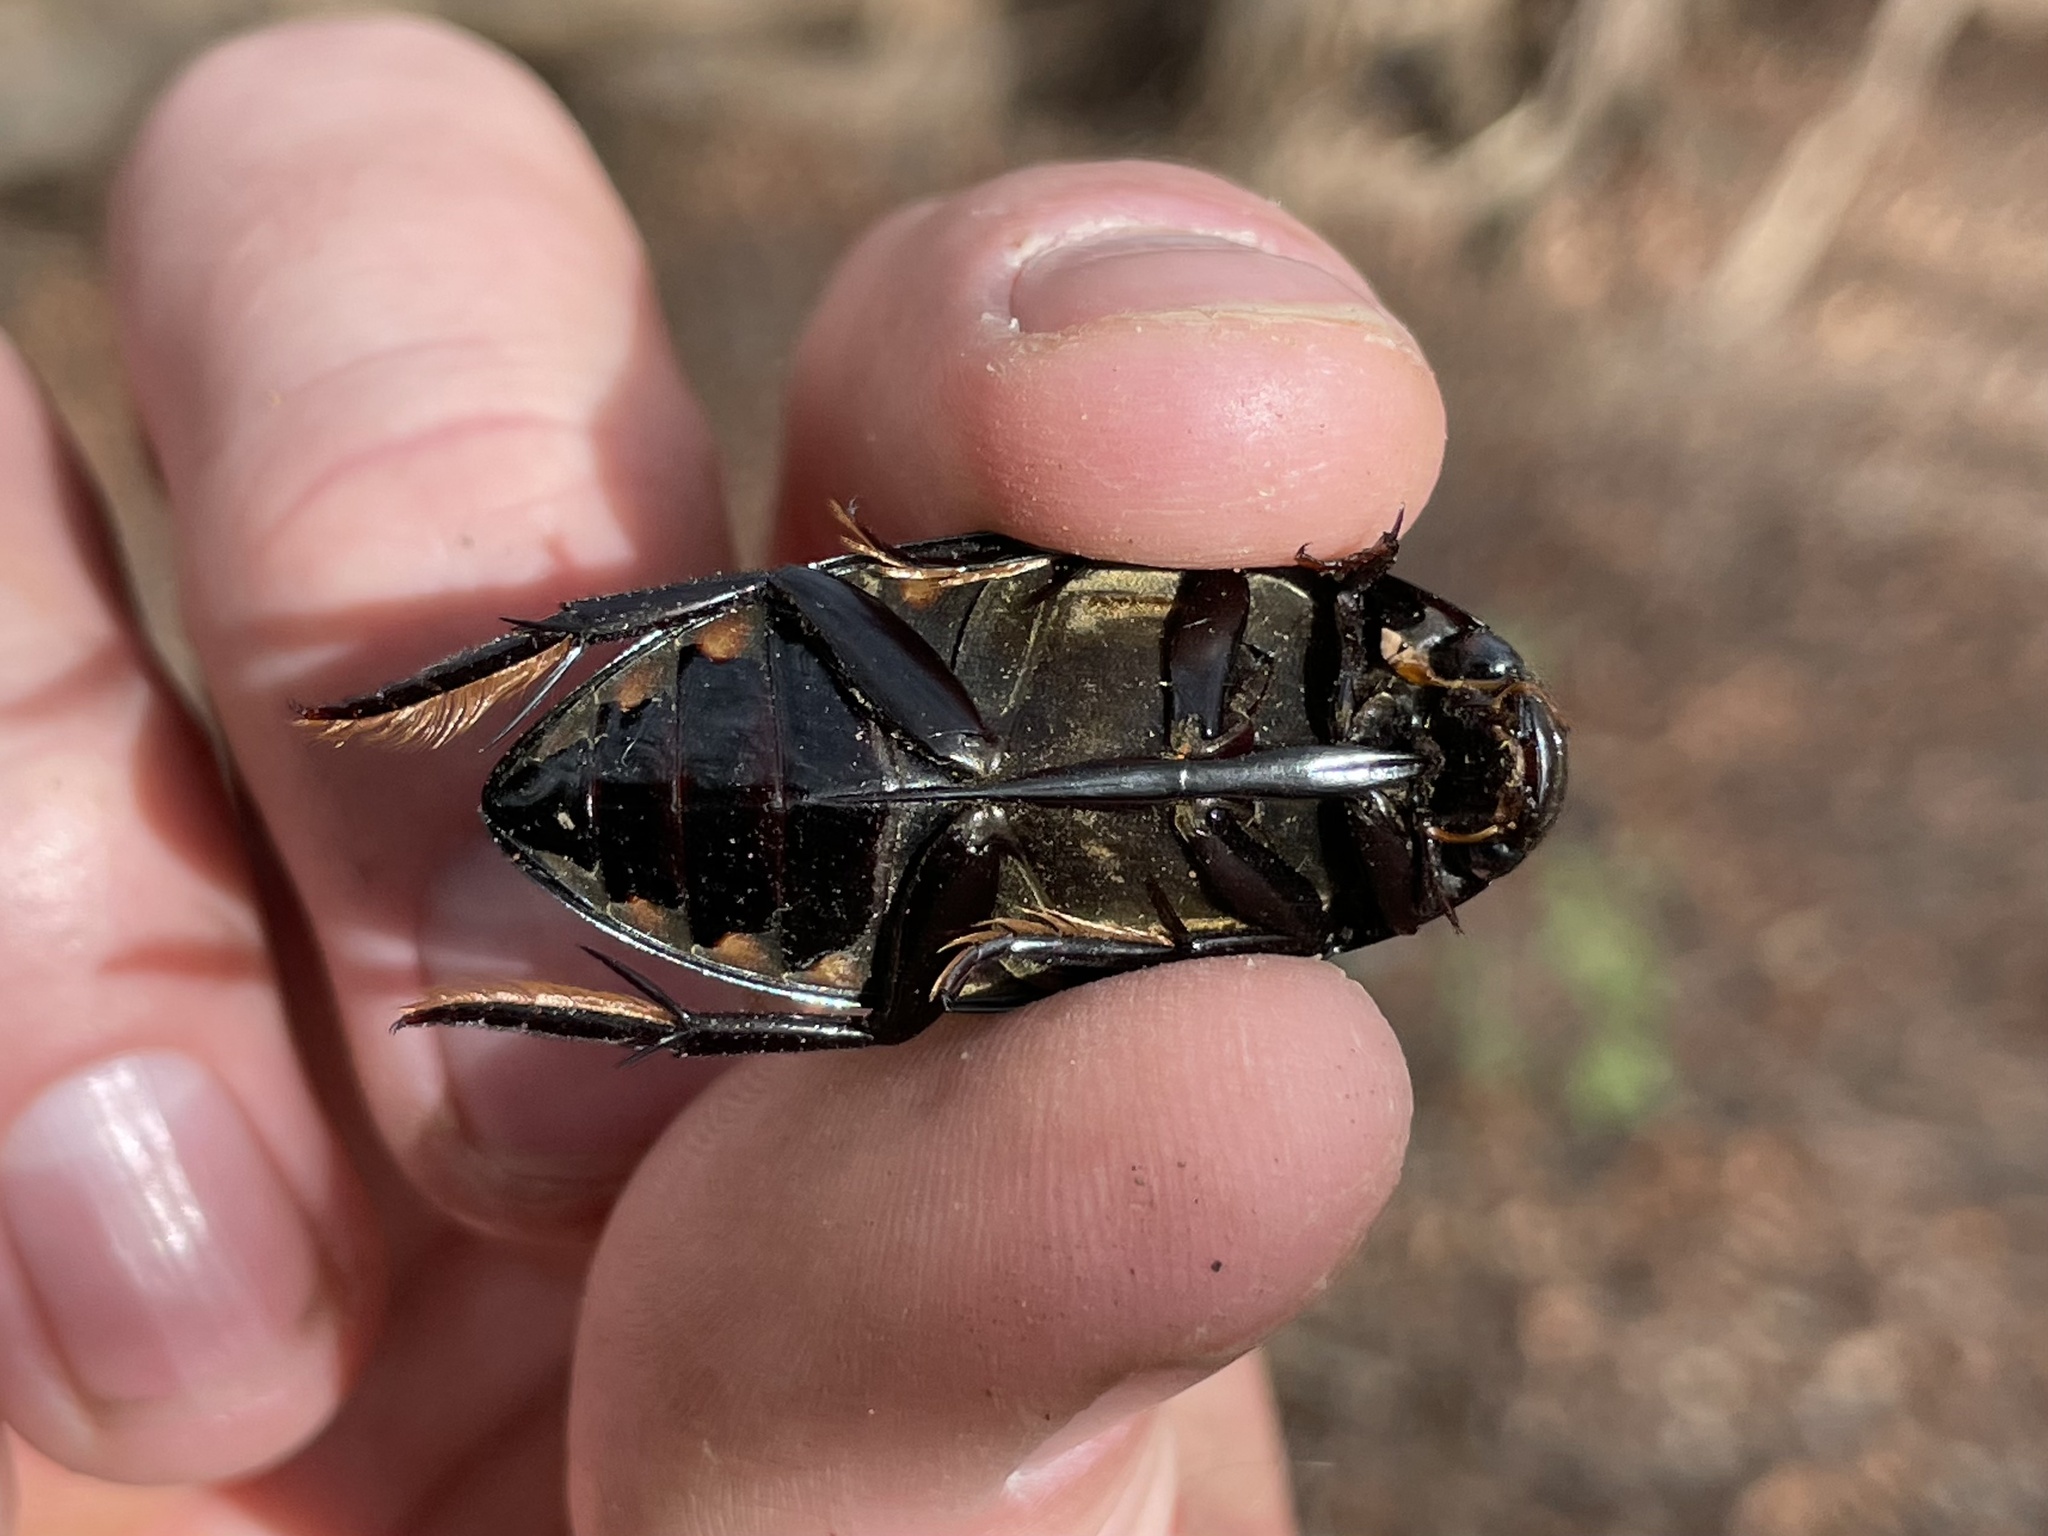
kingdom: Animalia
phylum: Arthropoda
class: Insecta
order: Coleoptera
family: Hydrophilidae
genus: Hydrophilus
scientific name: Hydrophilus triangularis
